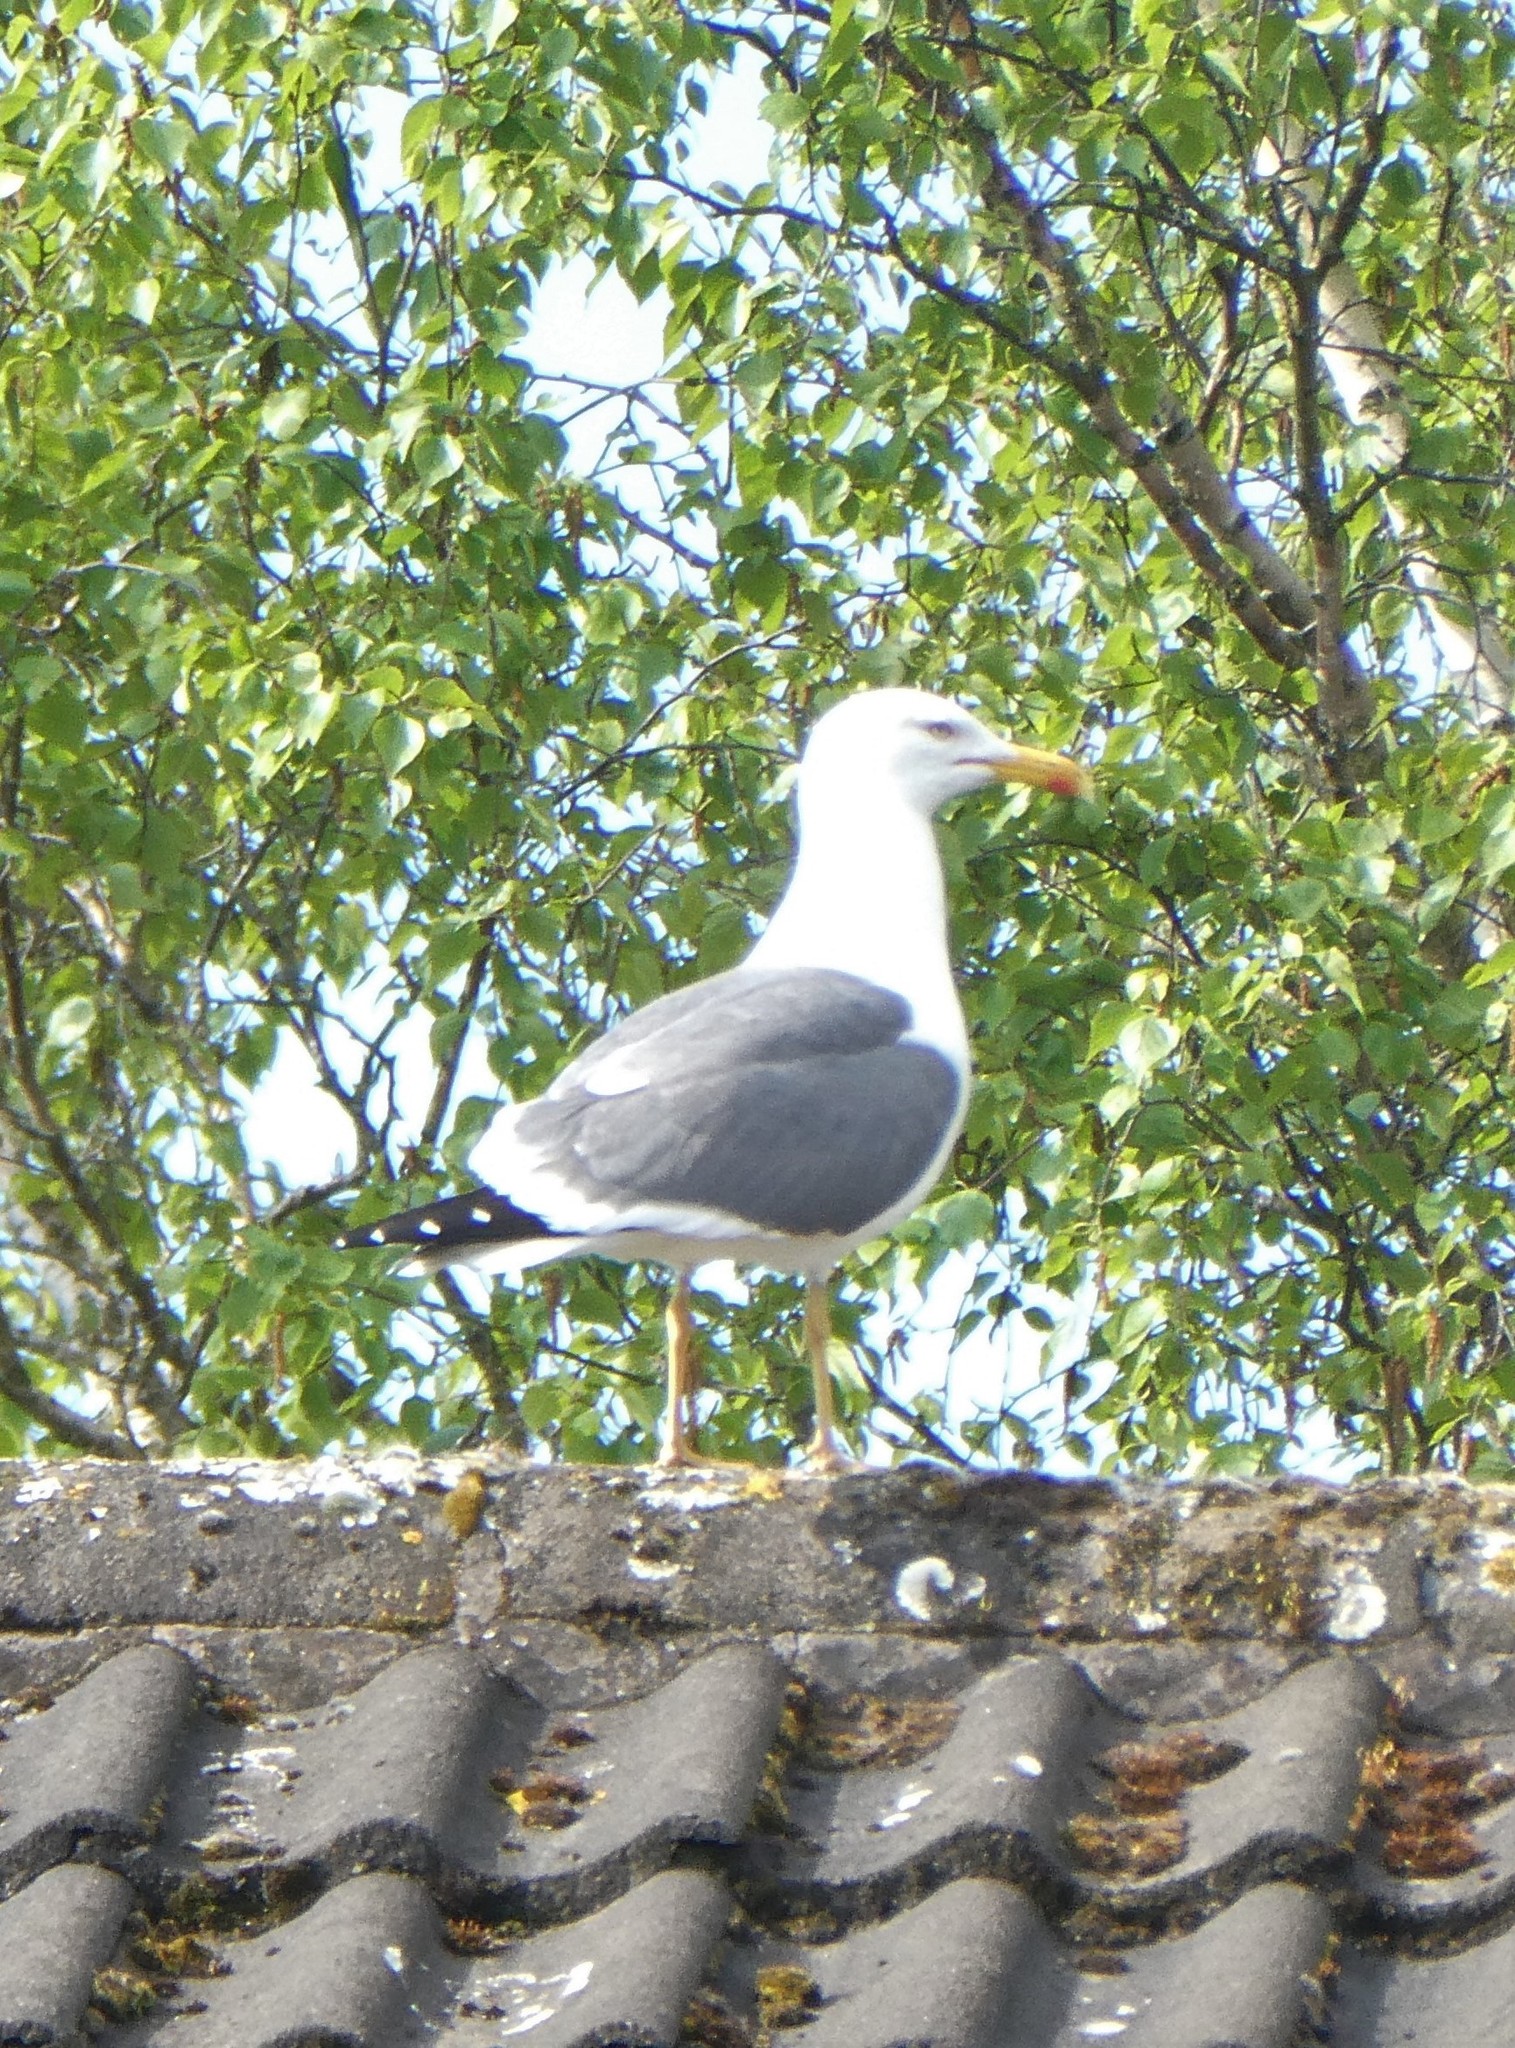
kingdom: Animalia
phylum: Chordata
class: Aves
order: Charadriiformes
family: Laridae
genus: Larus
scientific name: Larus fuscus
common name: Lesser black-backed gull
